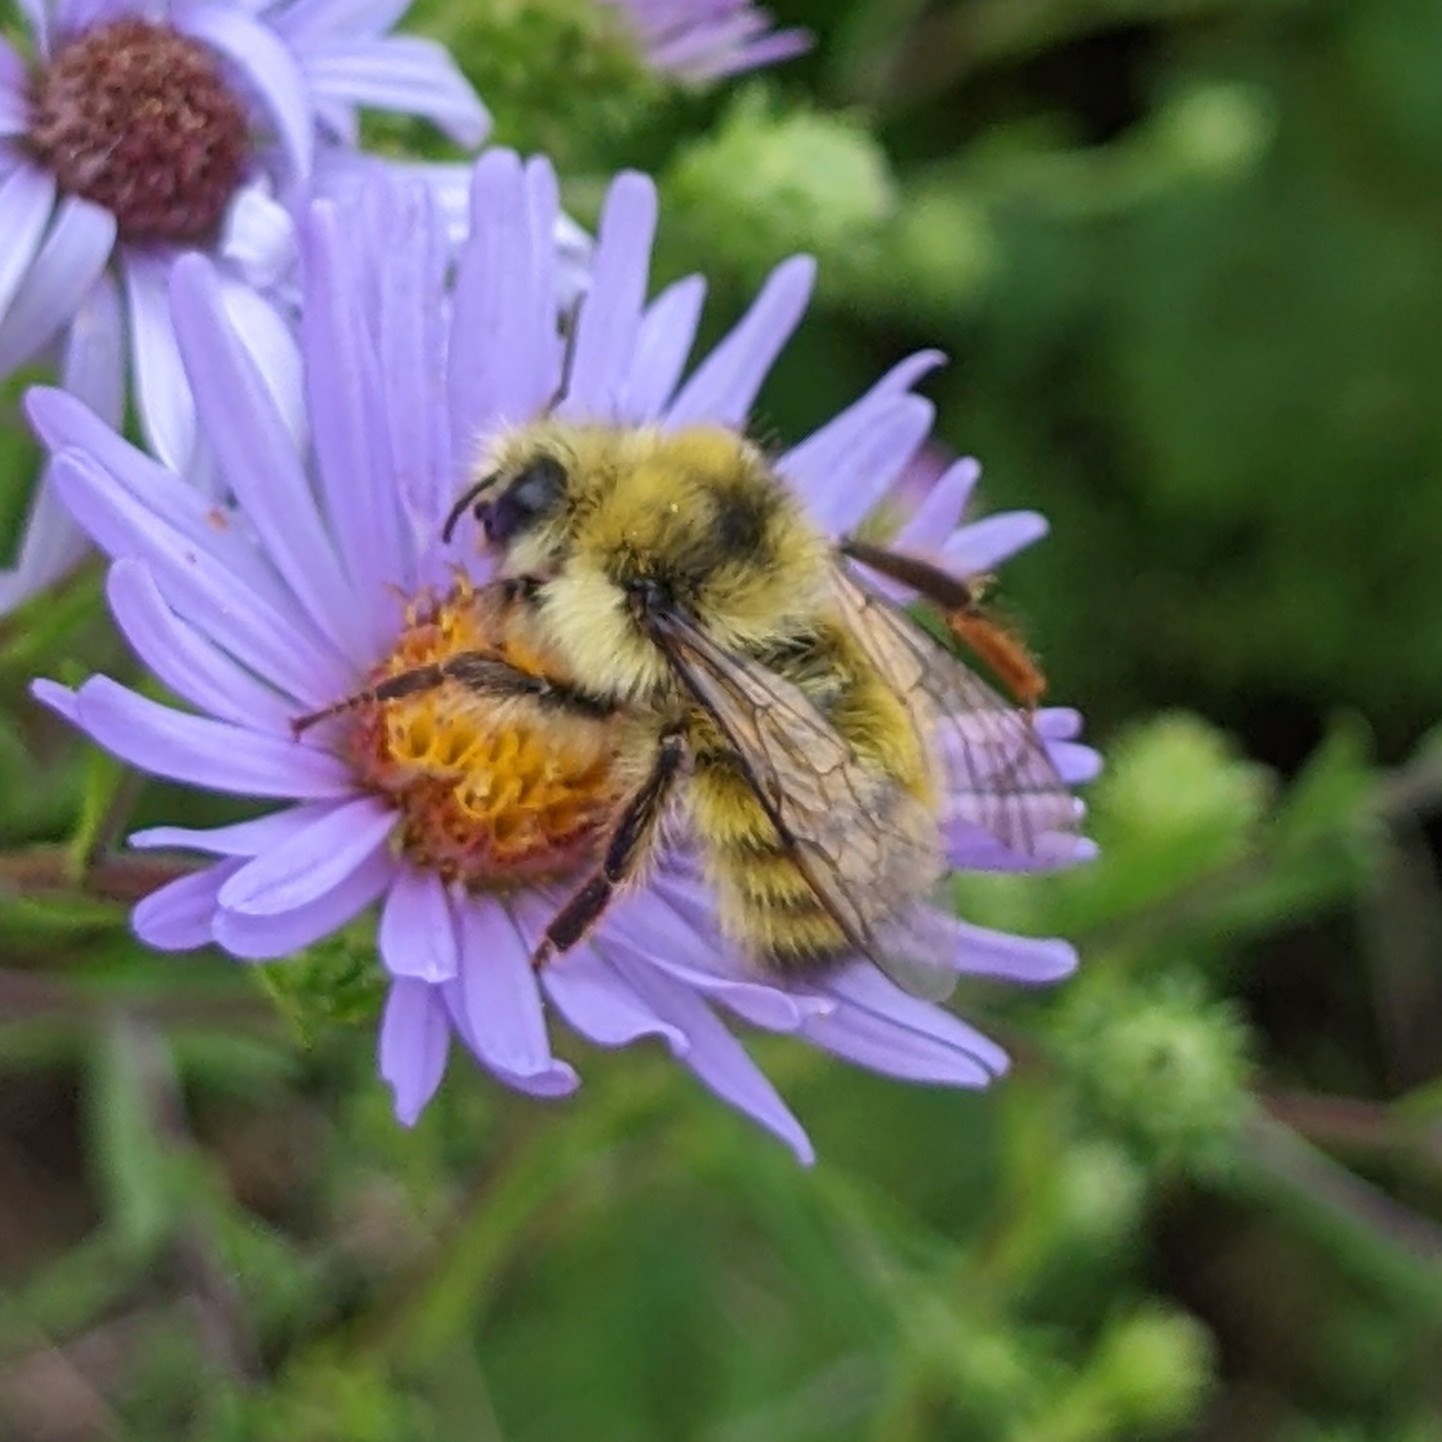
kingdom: Animalia
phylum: Arthropoda
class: Insecta
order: Hymenoptera
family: Apidae
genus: Bombus
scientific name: Bombus flavifrons
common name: Yellow head bumble bee
